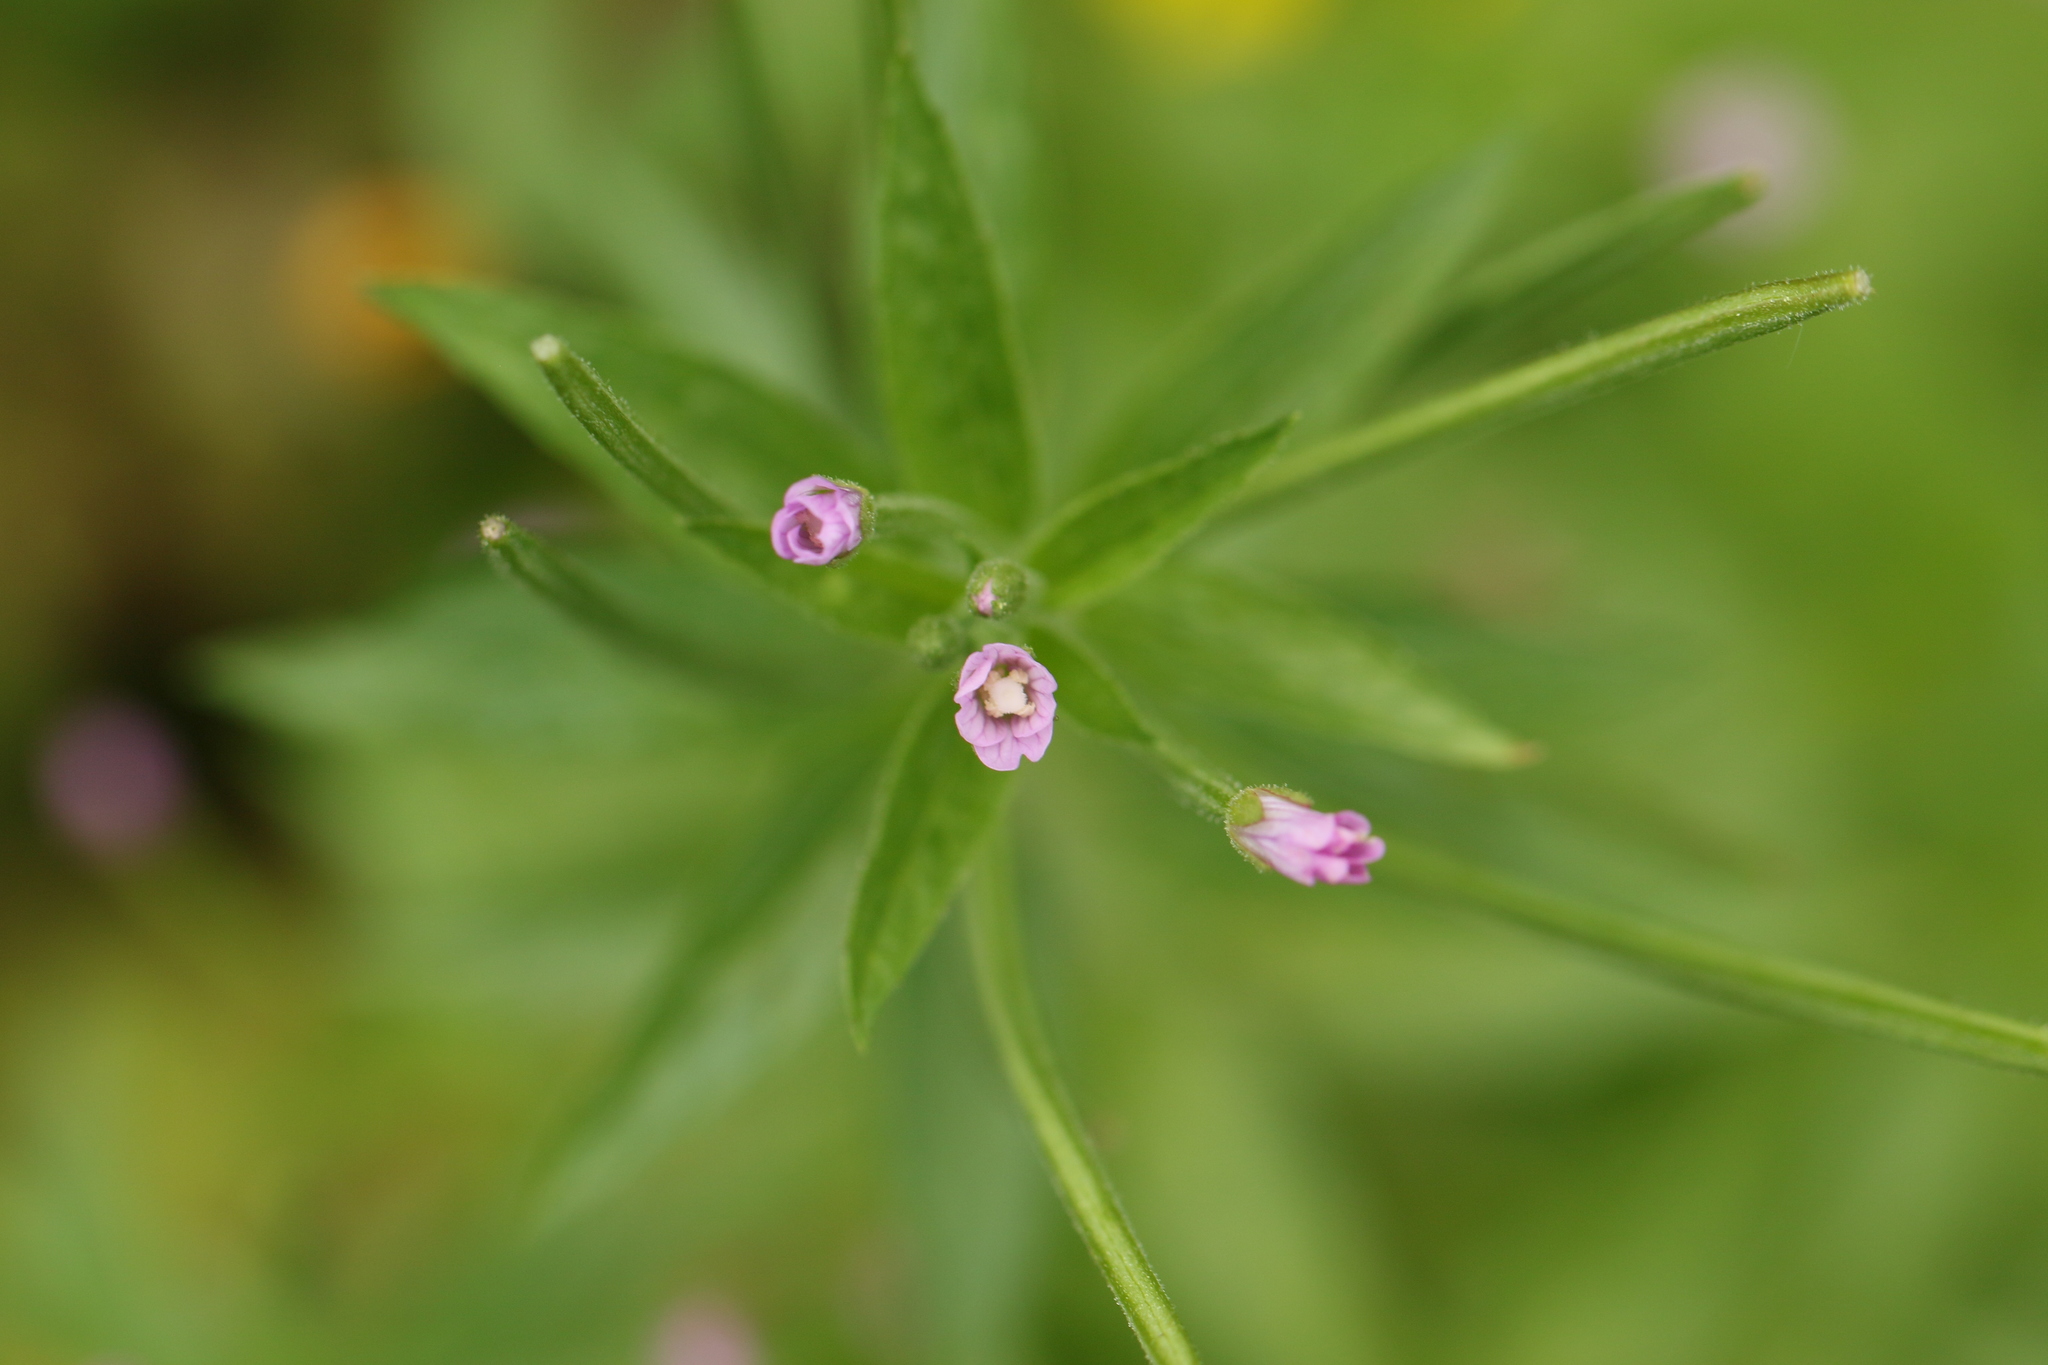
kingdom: Plantae
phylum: Tracheophyta
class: Magnoliopsida
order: Myrtales
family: Onagraceae
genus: Epilobium
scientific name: Epilobium ciliatum
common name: American willowherb
